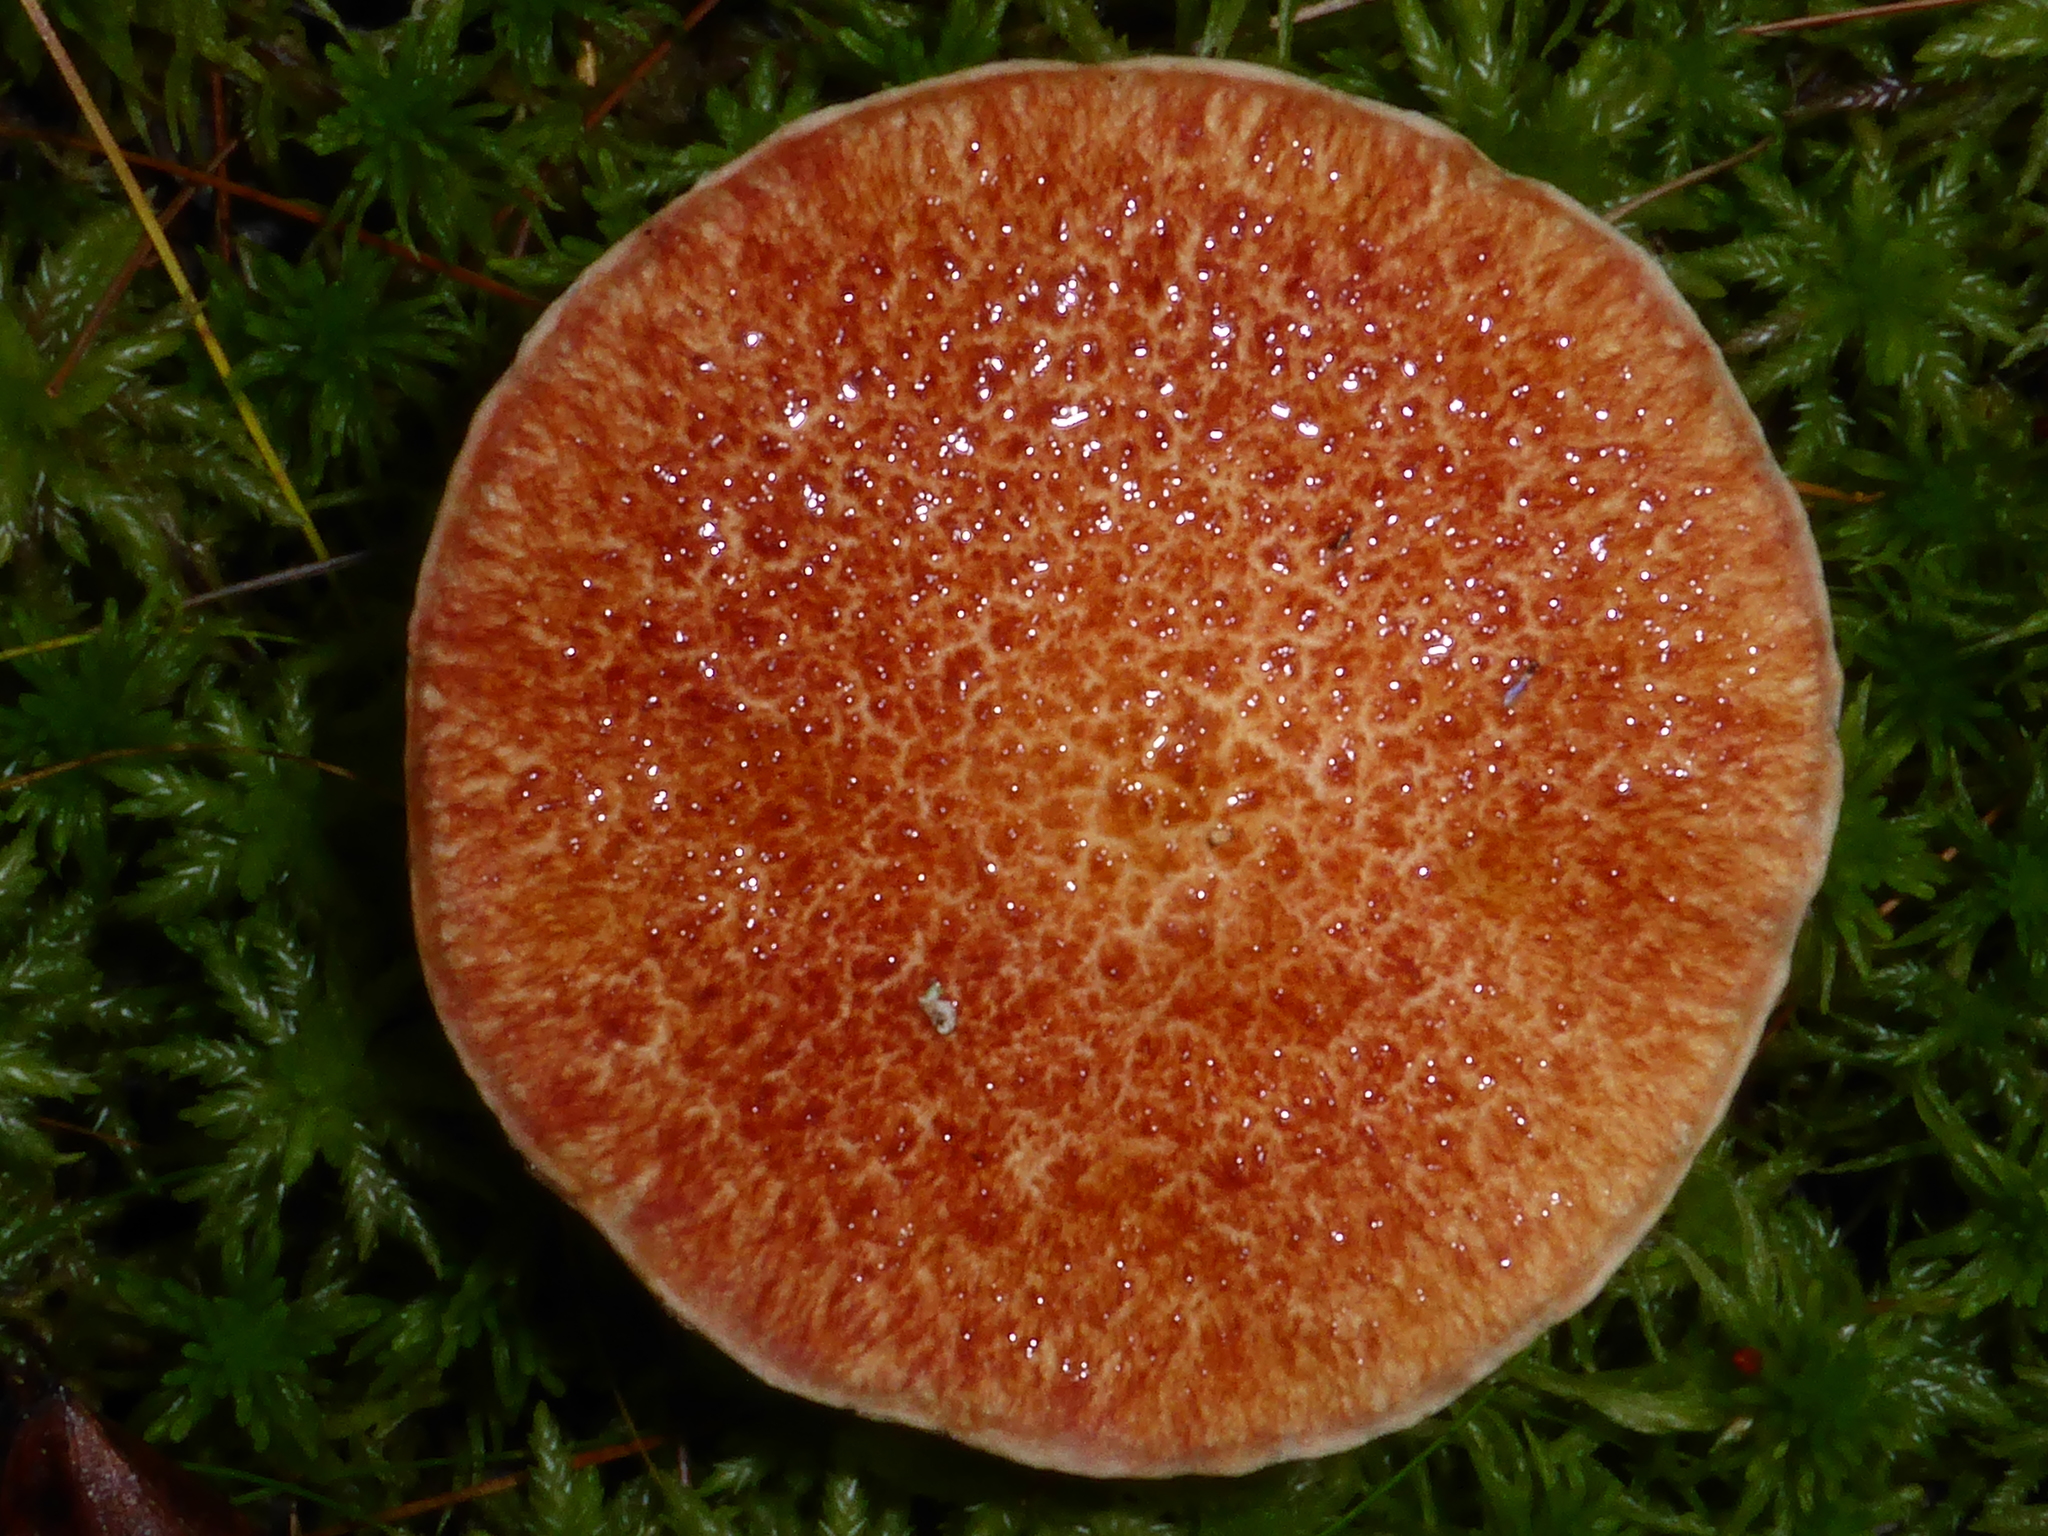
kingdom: Fungi
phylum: Basidiomycota
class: Agaricomycetes
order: Boletales
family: Suillaceae
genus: Suillus
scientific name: Suillus spraguei
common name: Painted suillus
